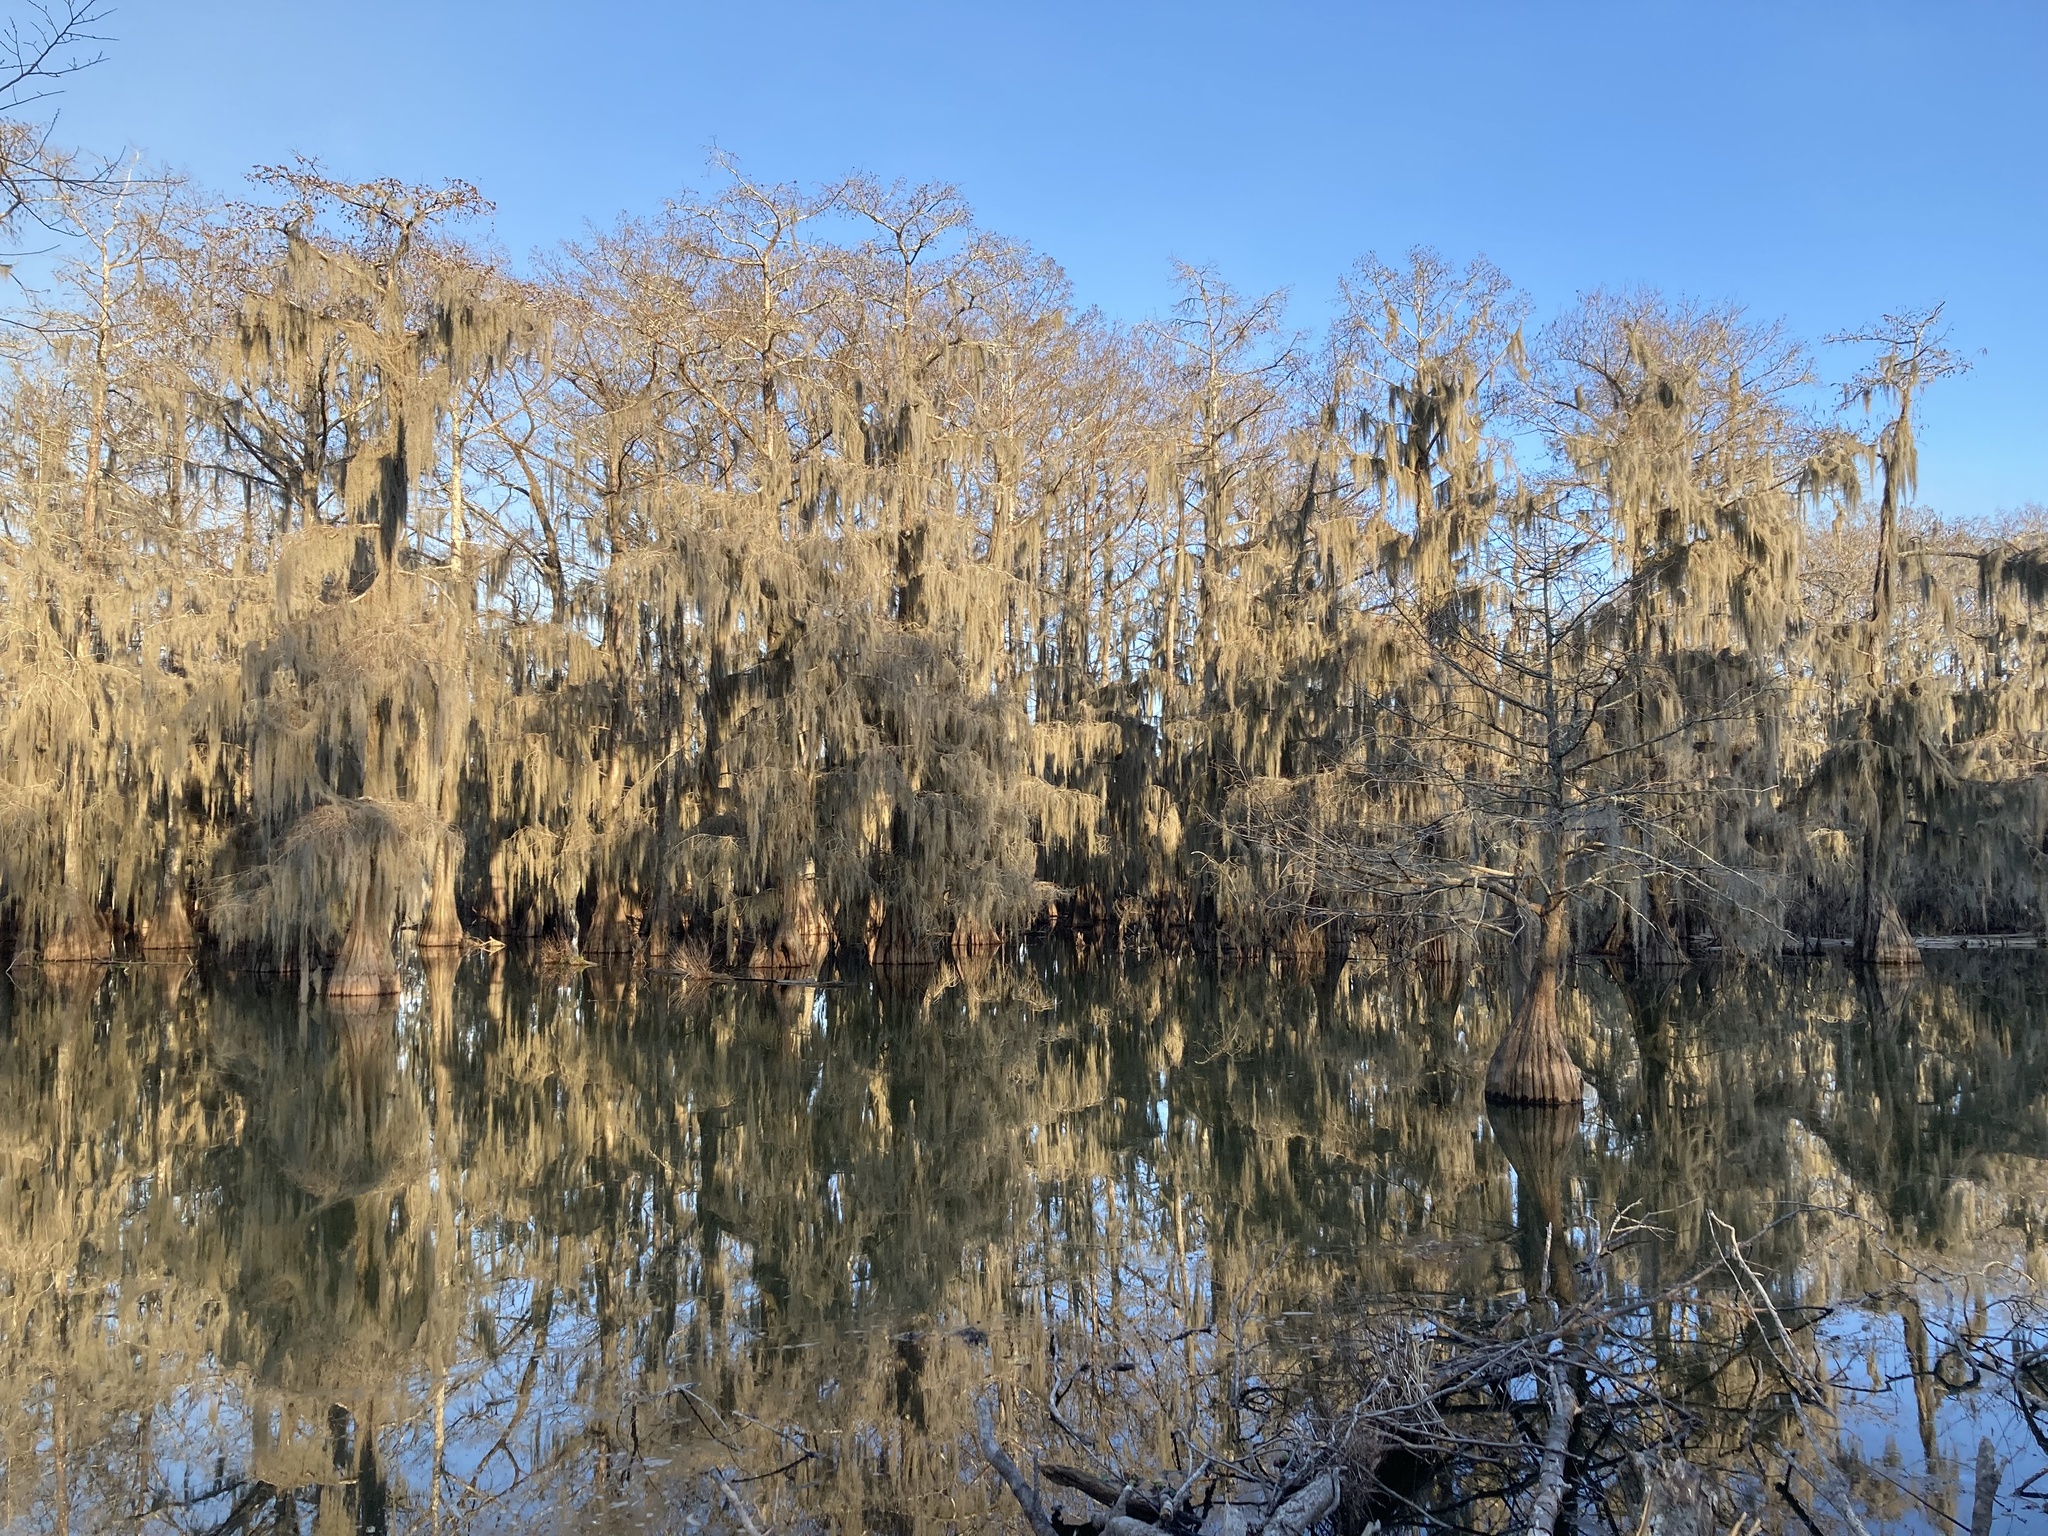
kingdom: Plantae
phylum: Tracheophyta
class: Pinopsida
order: Pinales
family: Cupressaceae
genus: Taxodium
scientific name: Taxodium distichum
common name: Bald cypress
